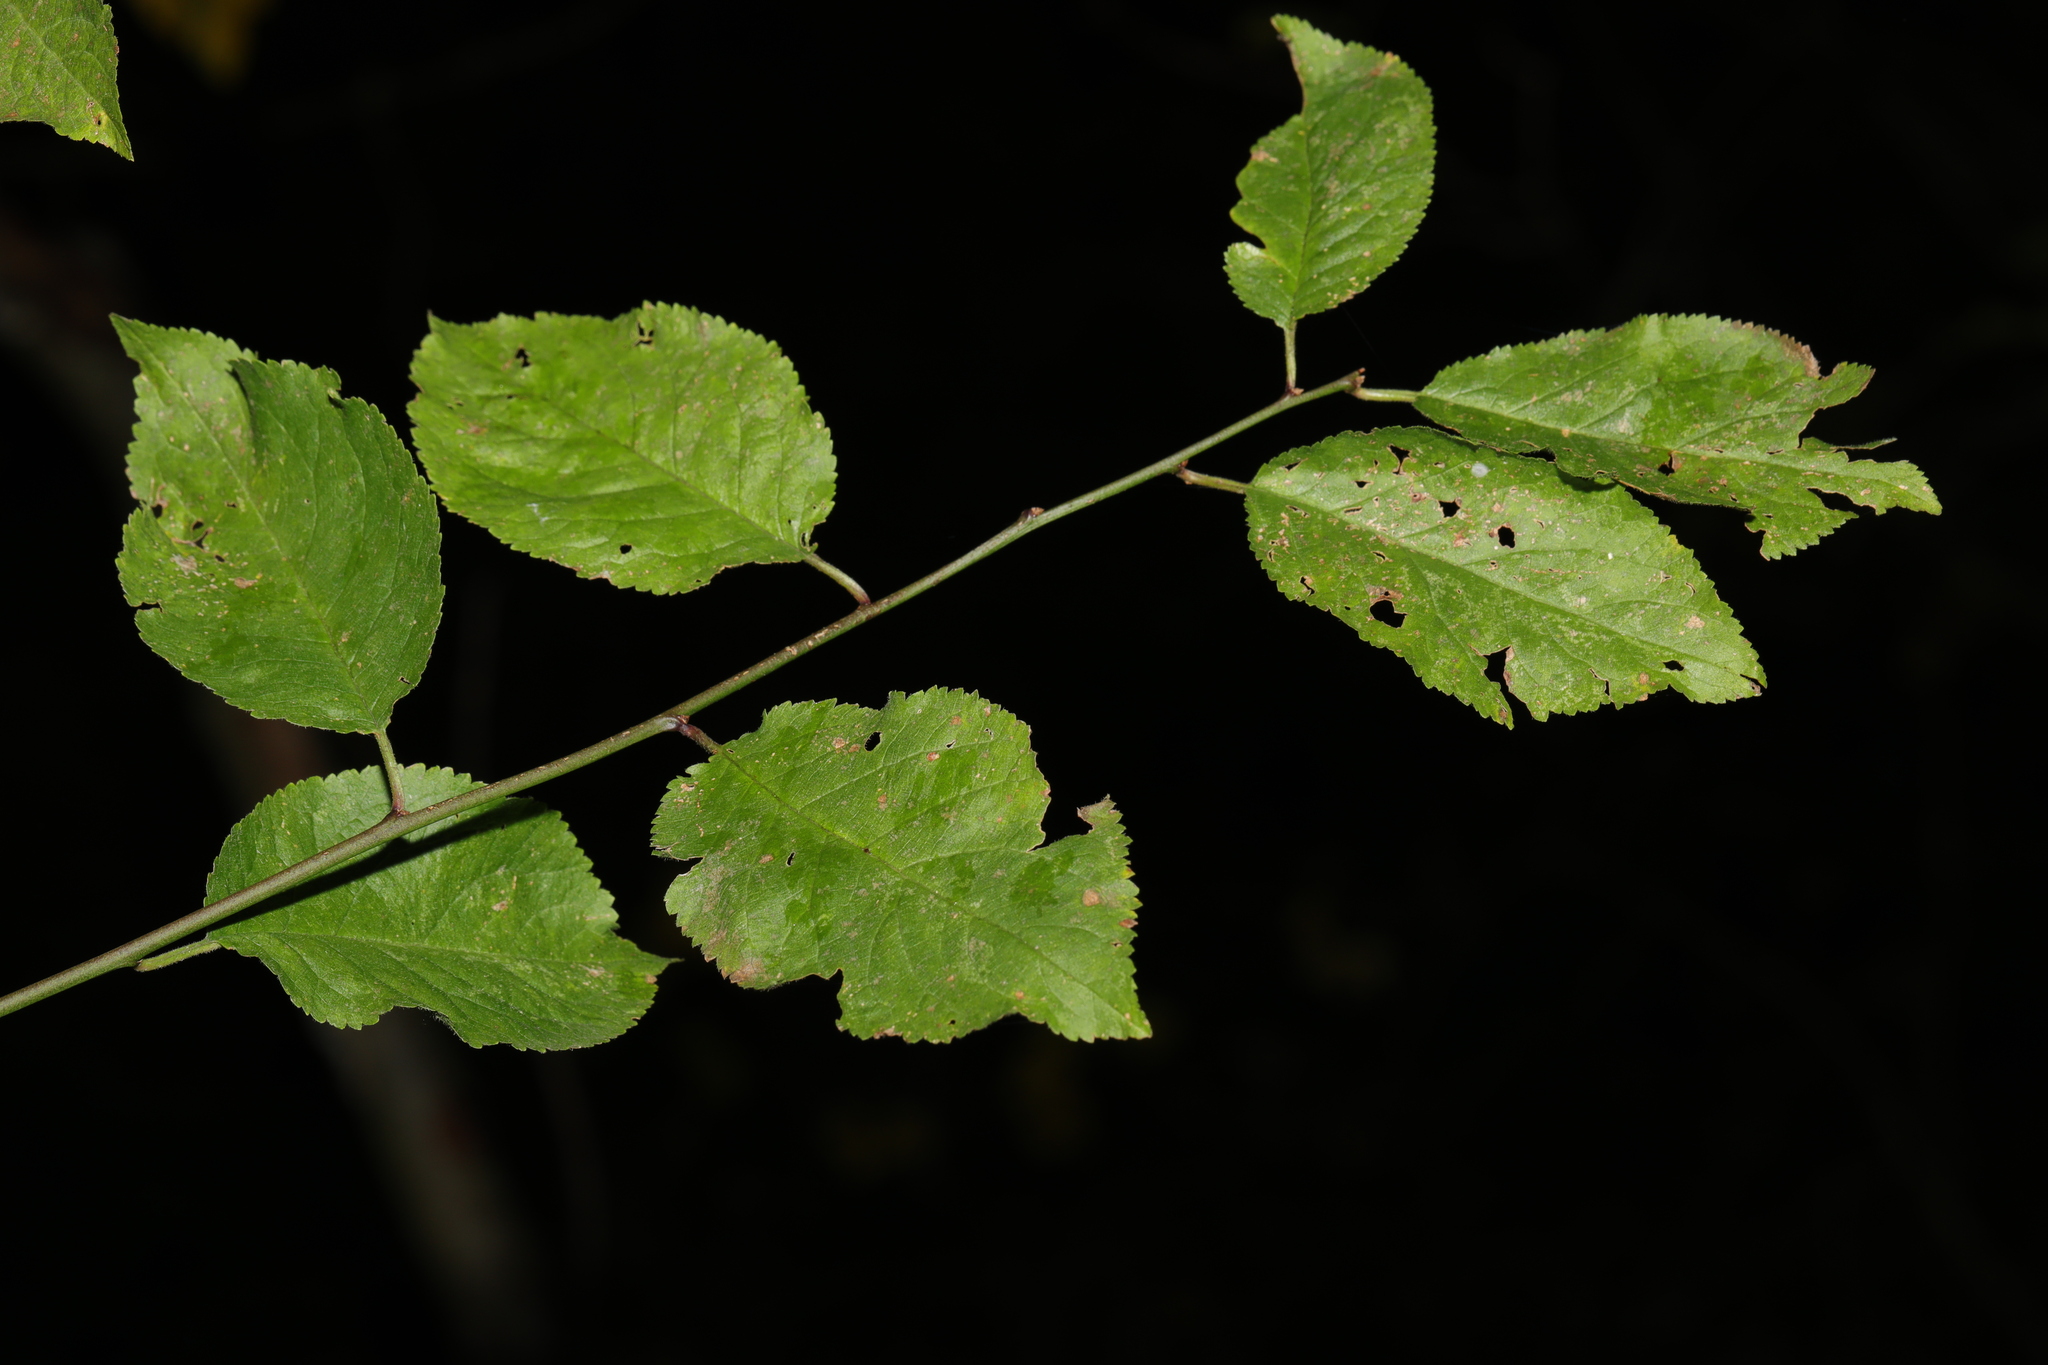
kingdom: Plantae
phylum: Tracheophyta
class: Magnoliopsida
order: Rosales
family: Rosaceae
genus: Prunus
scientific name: Prunus cerasifera
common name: Cherry plum
